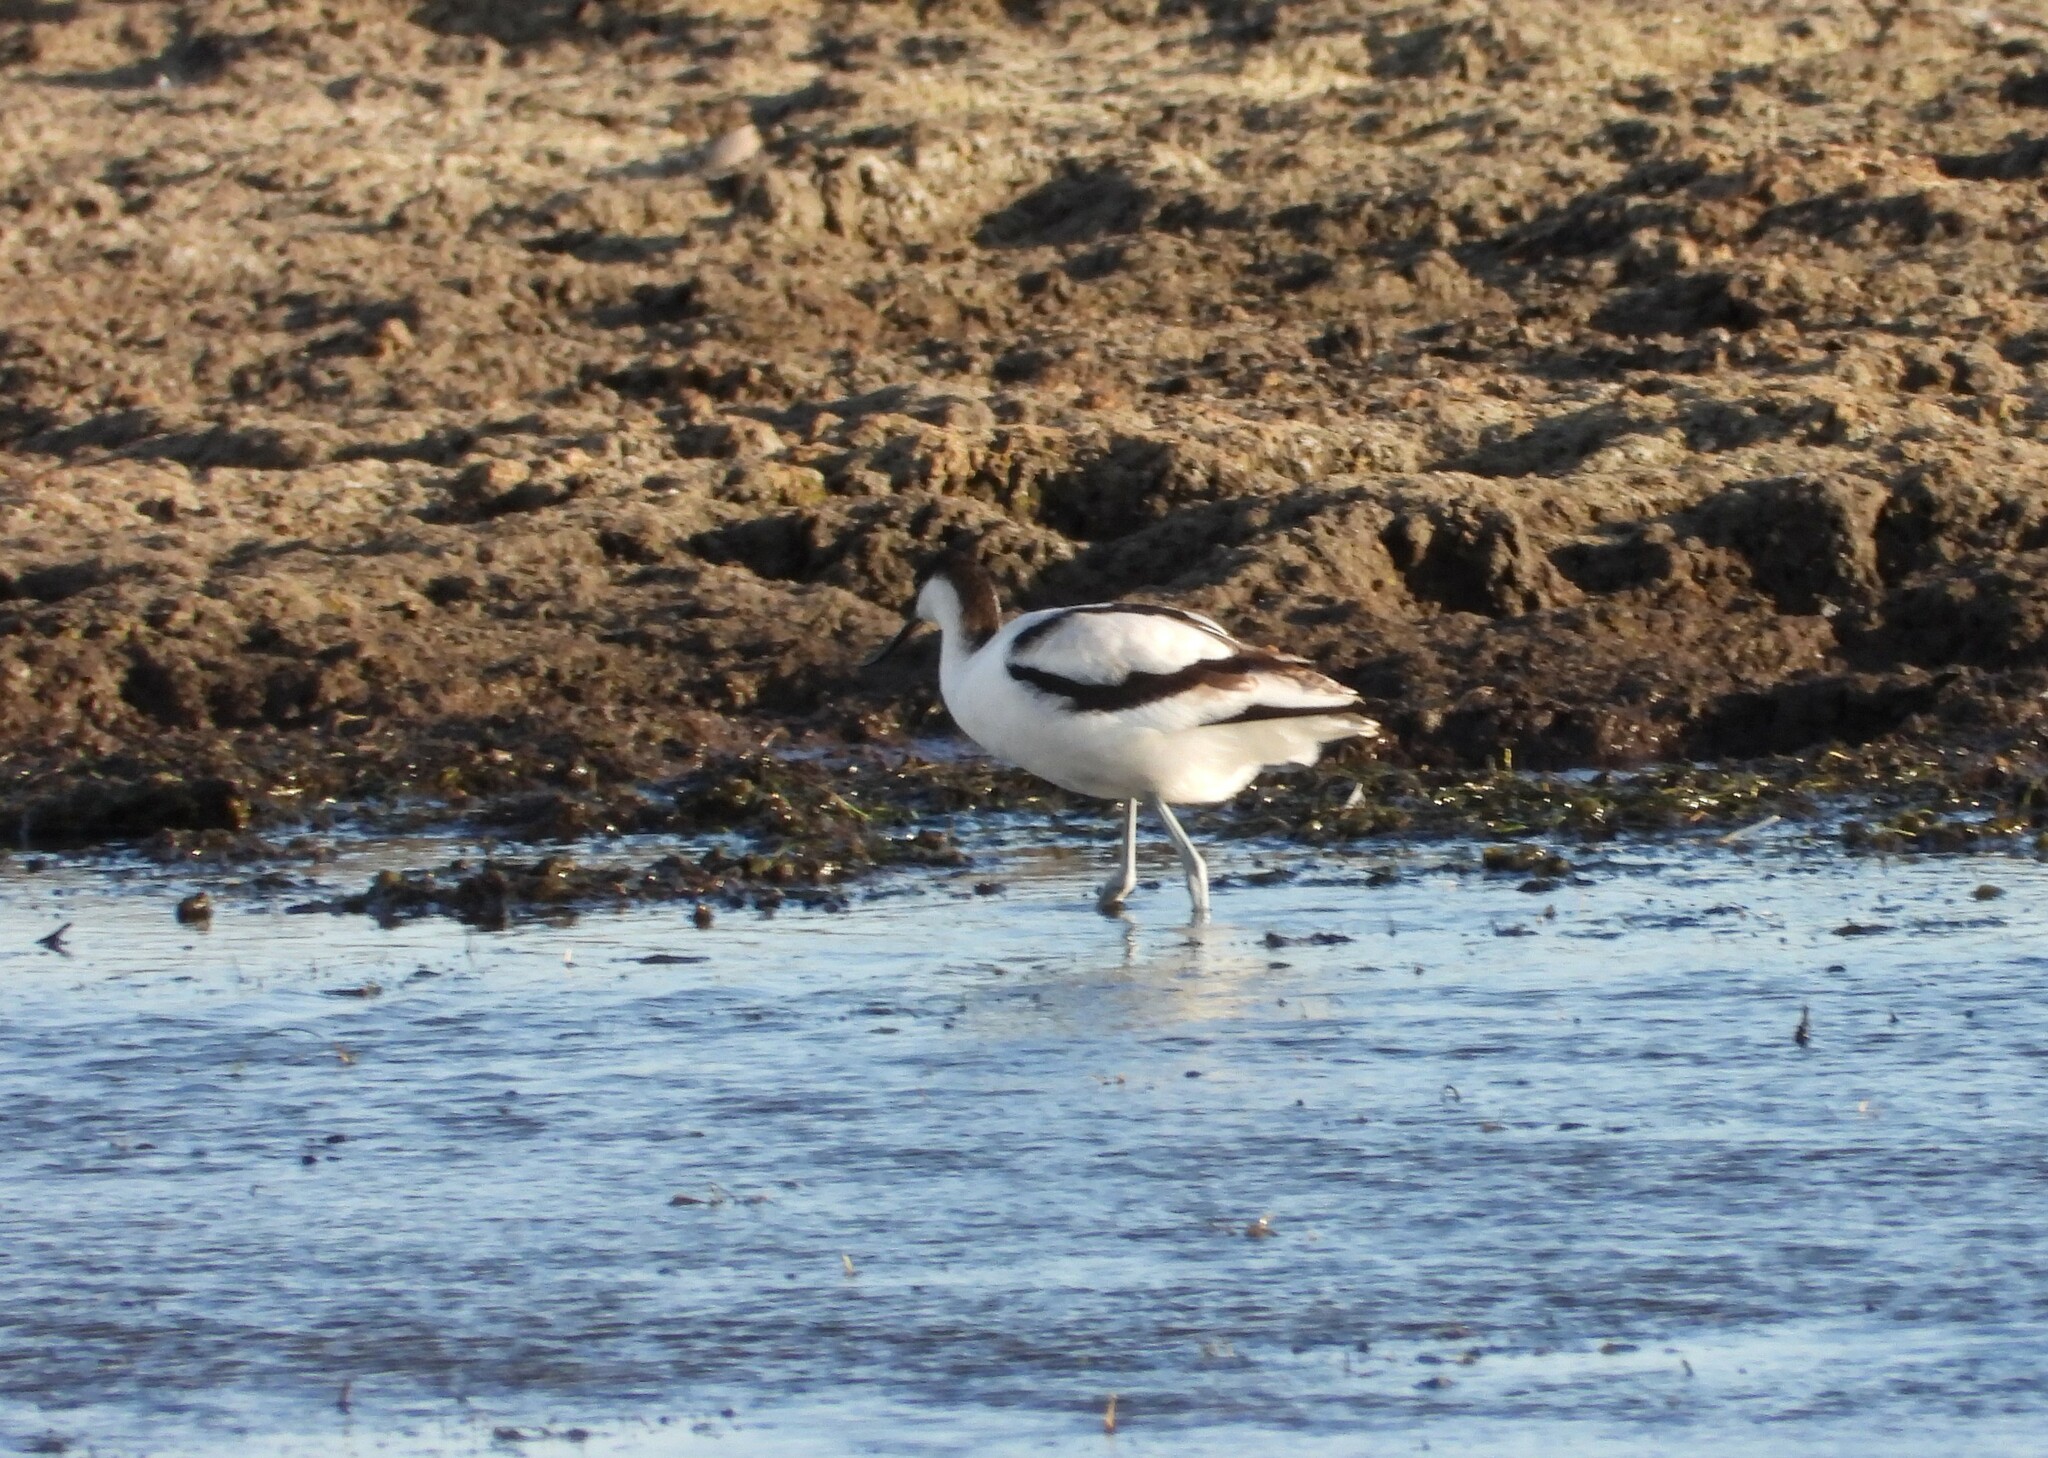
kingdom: Animalia
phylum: Chordata
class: Aves
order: Charadriiformes
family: Recurvirostridae
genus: Recurvirostra
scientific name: Recurvirostra avosetta
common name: Pied avocet
